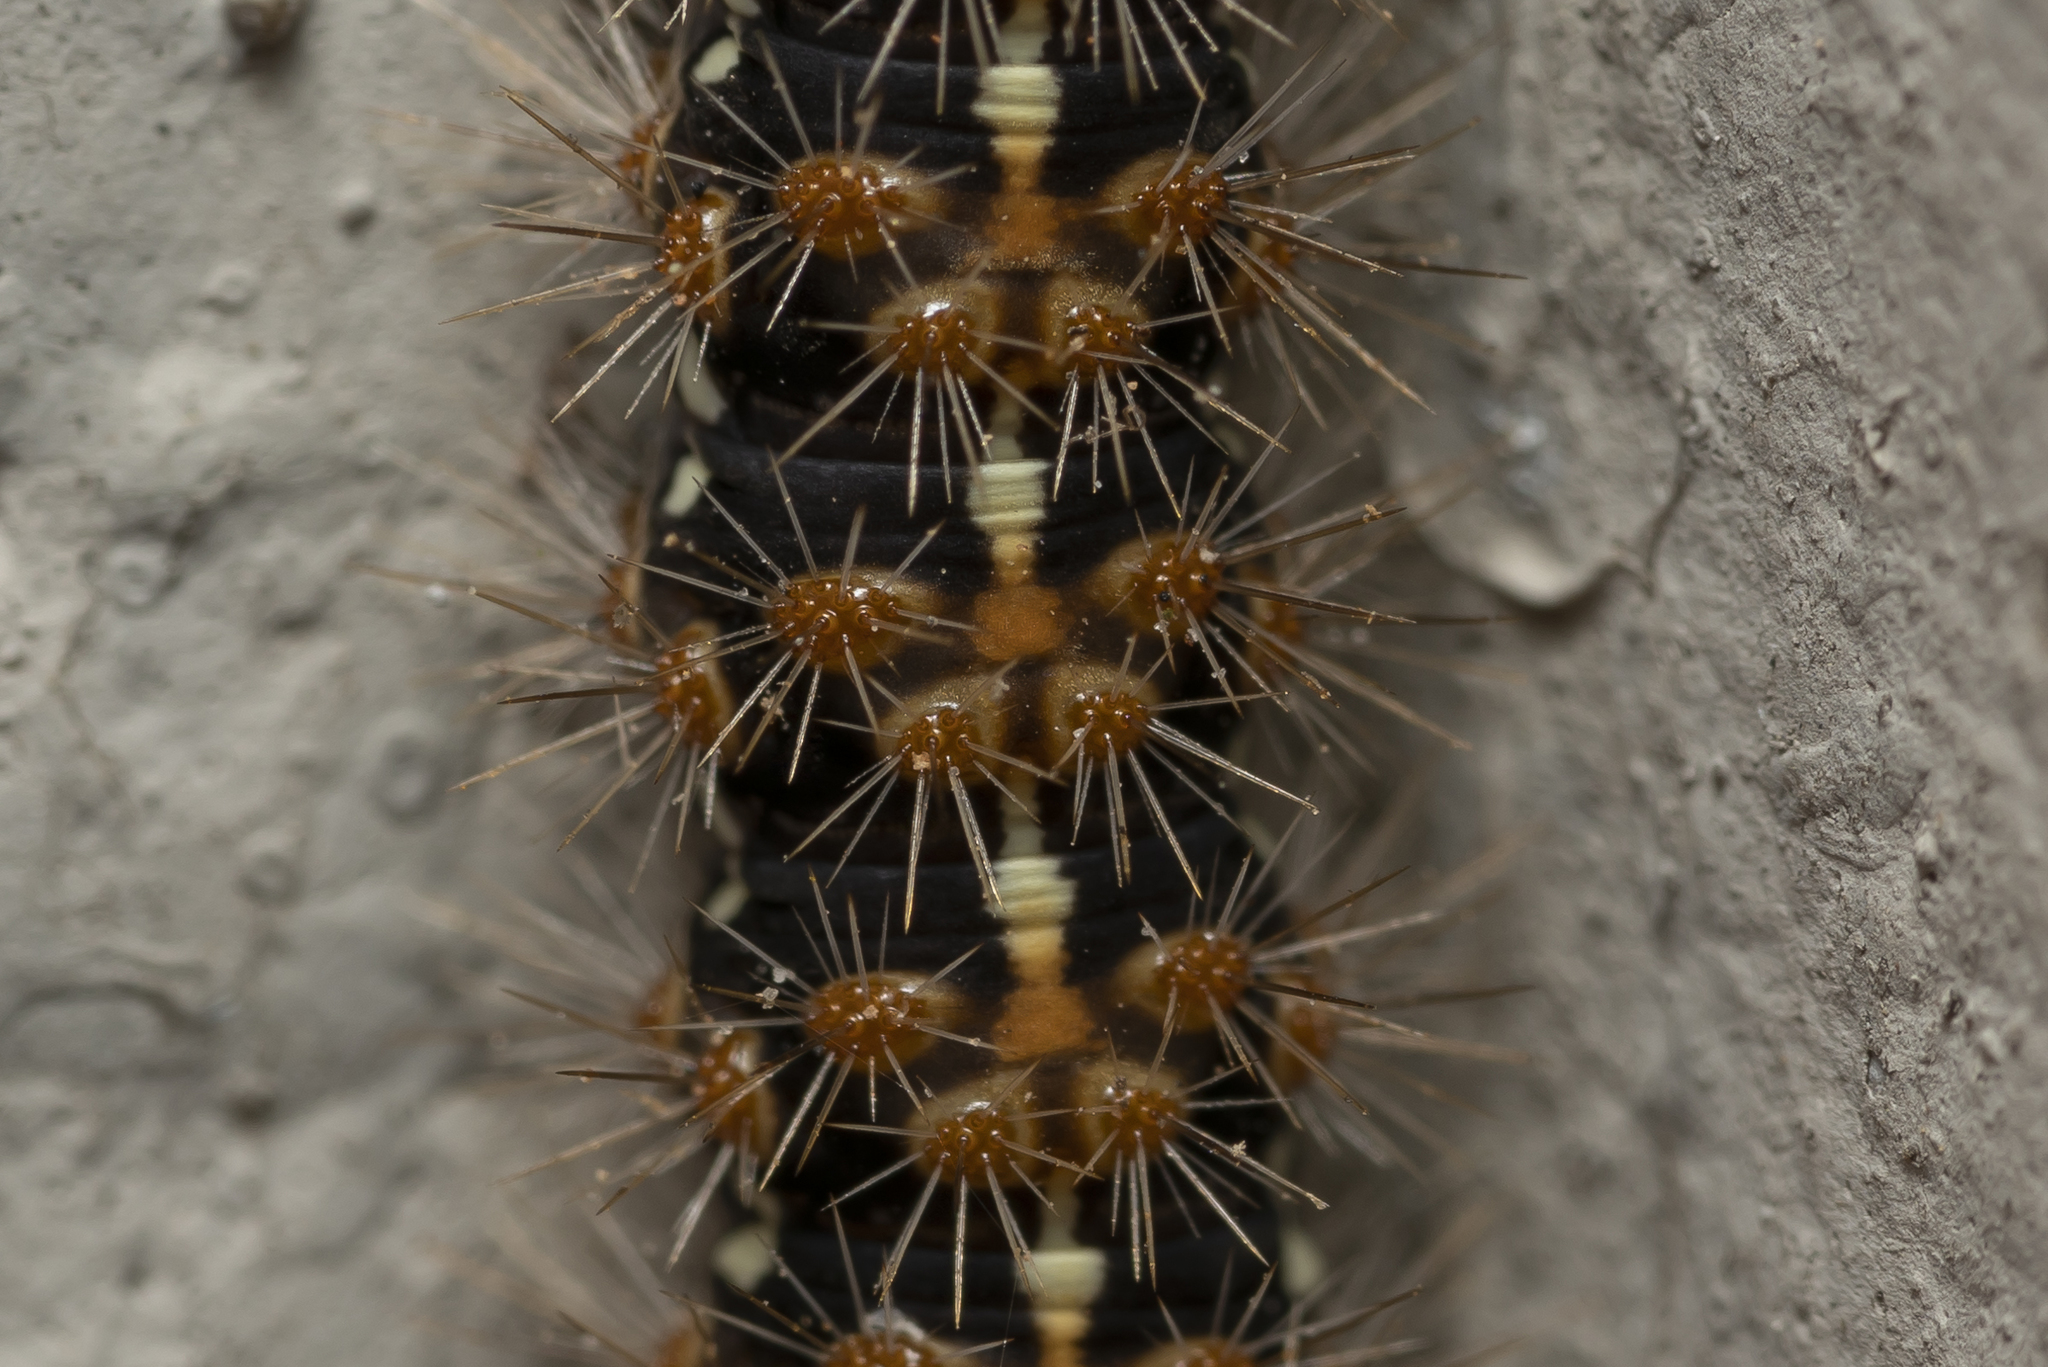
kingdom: Animalia
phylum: Arthropoda
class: Insecta
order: Lepidoptera
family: Erebidae
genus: Euplagia
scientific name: Euplagia quadripunctaria
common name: Jersey tiger
